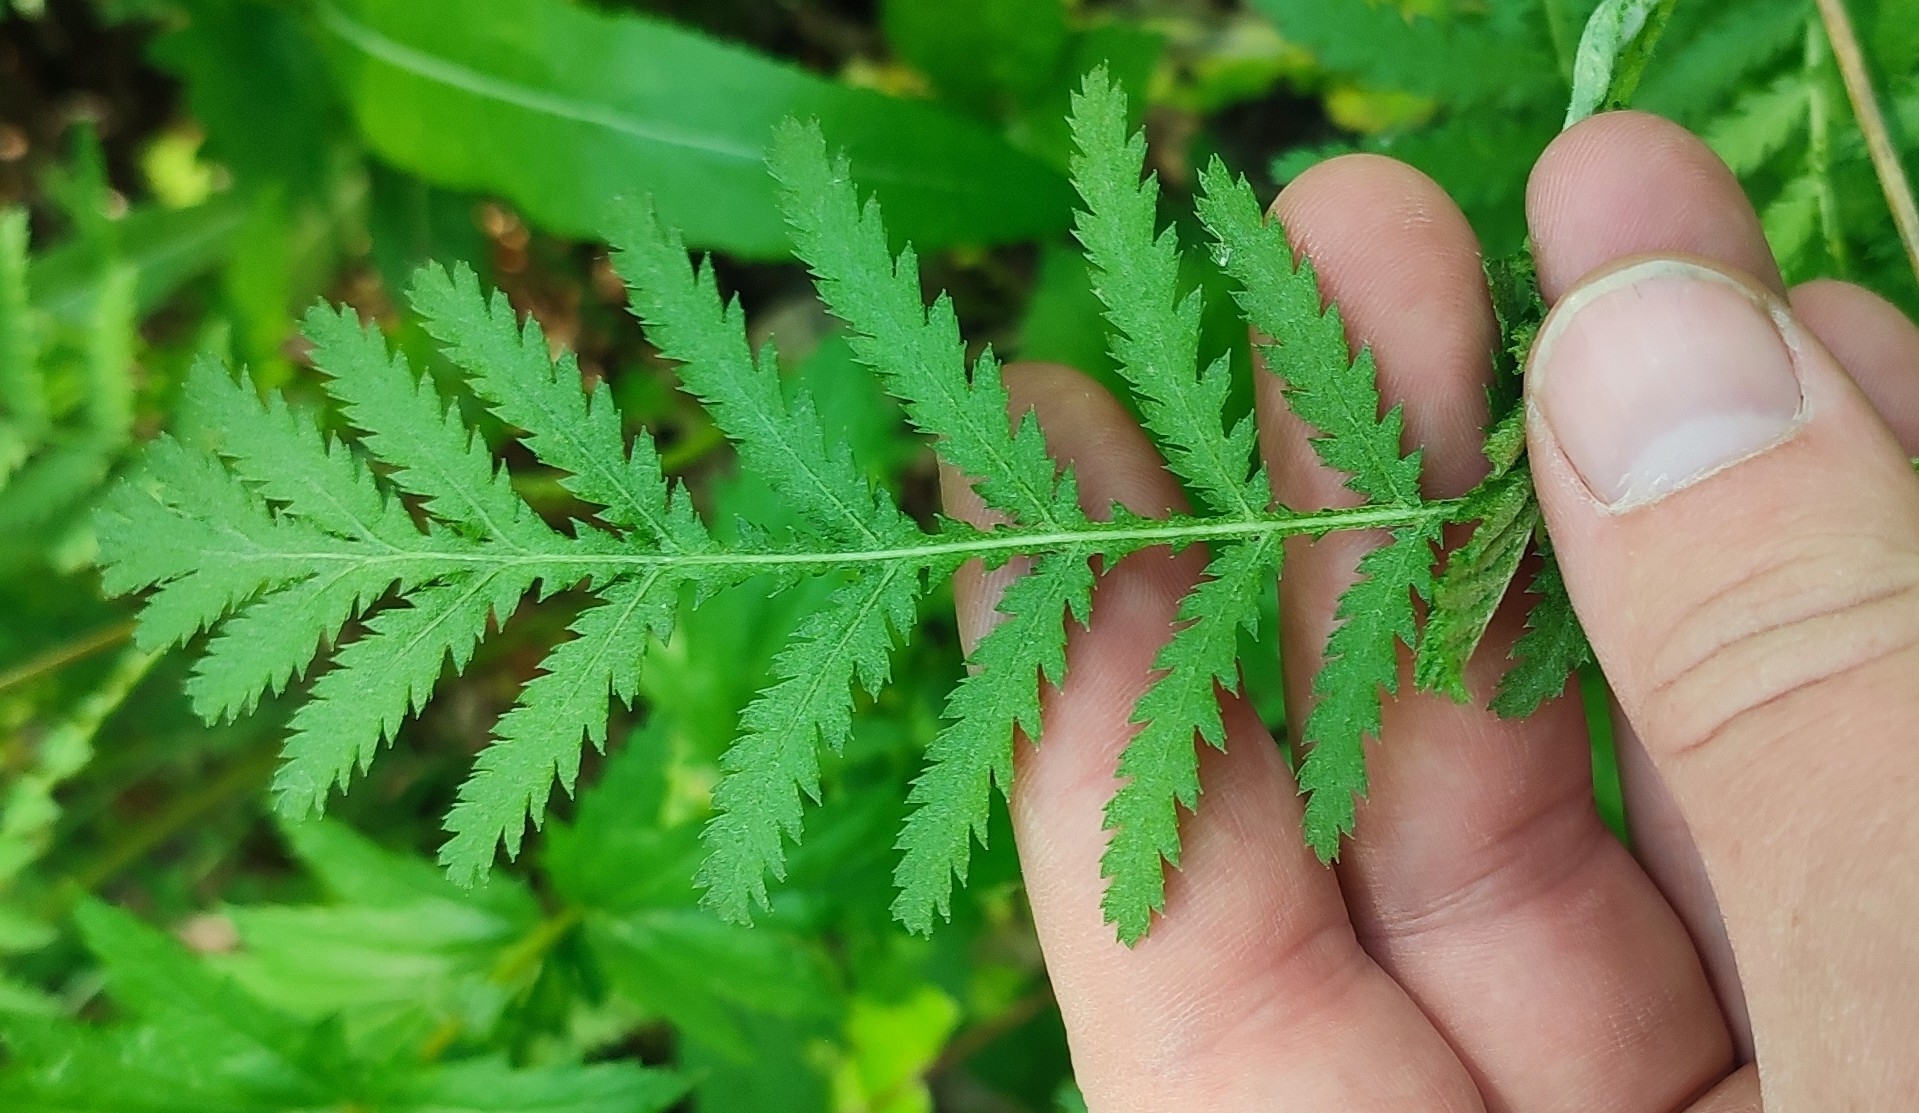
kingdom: Plantae
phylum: Tracheophyta
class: Magnoliopsida
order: Asterales
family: Asteraceae
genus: Tanacetum
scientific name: Tanacetum vulgare
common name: Common tansy
